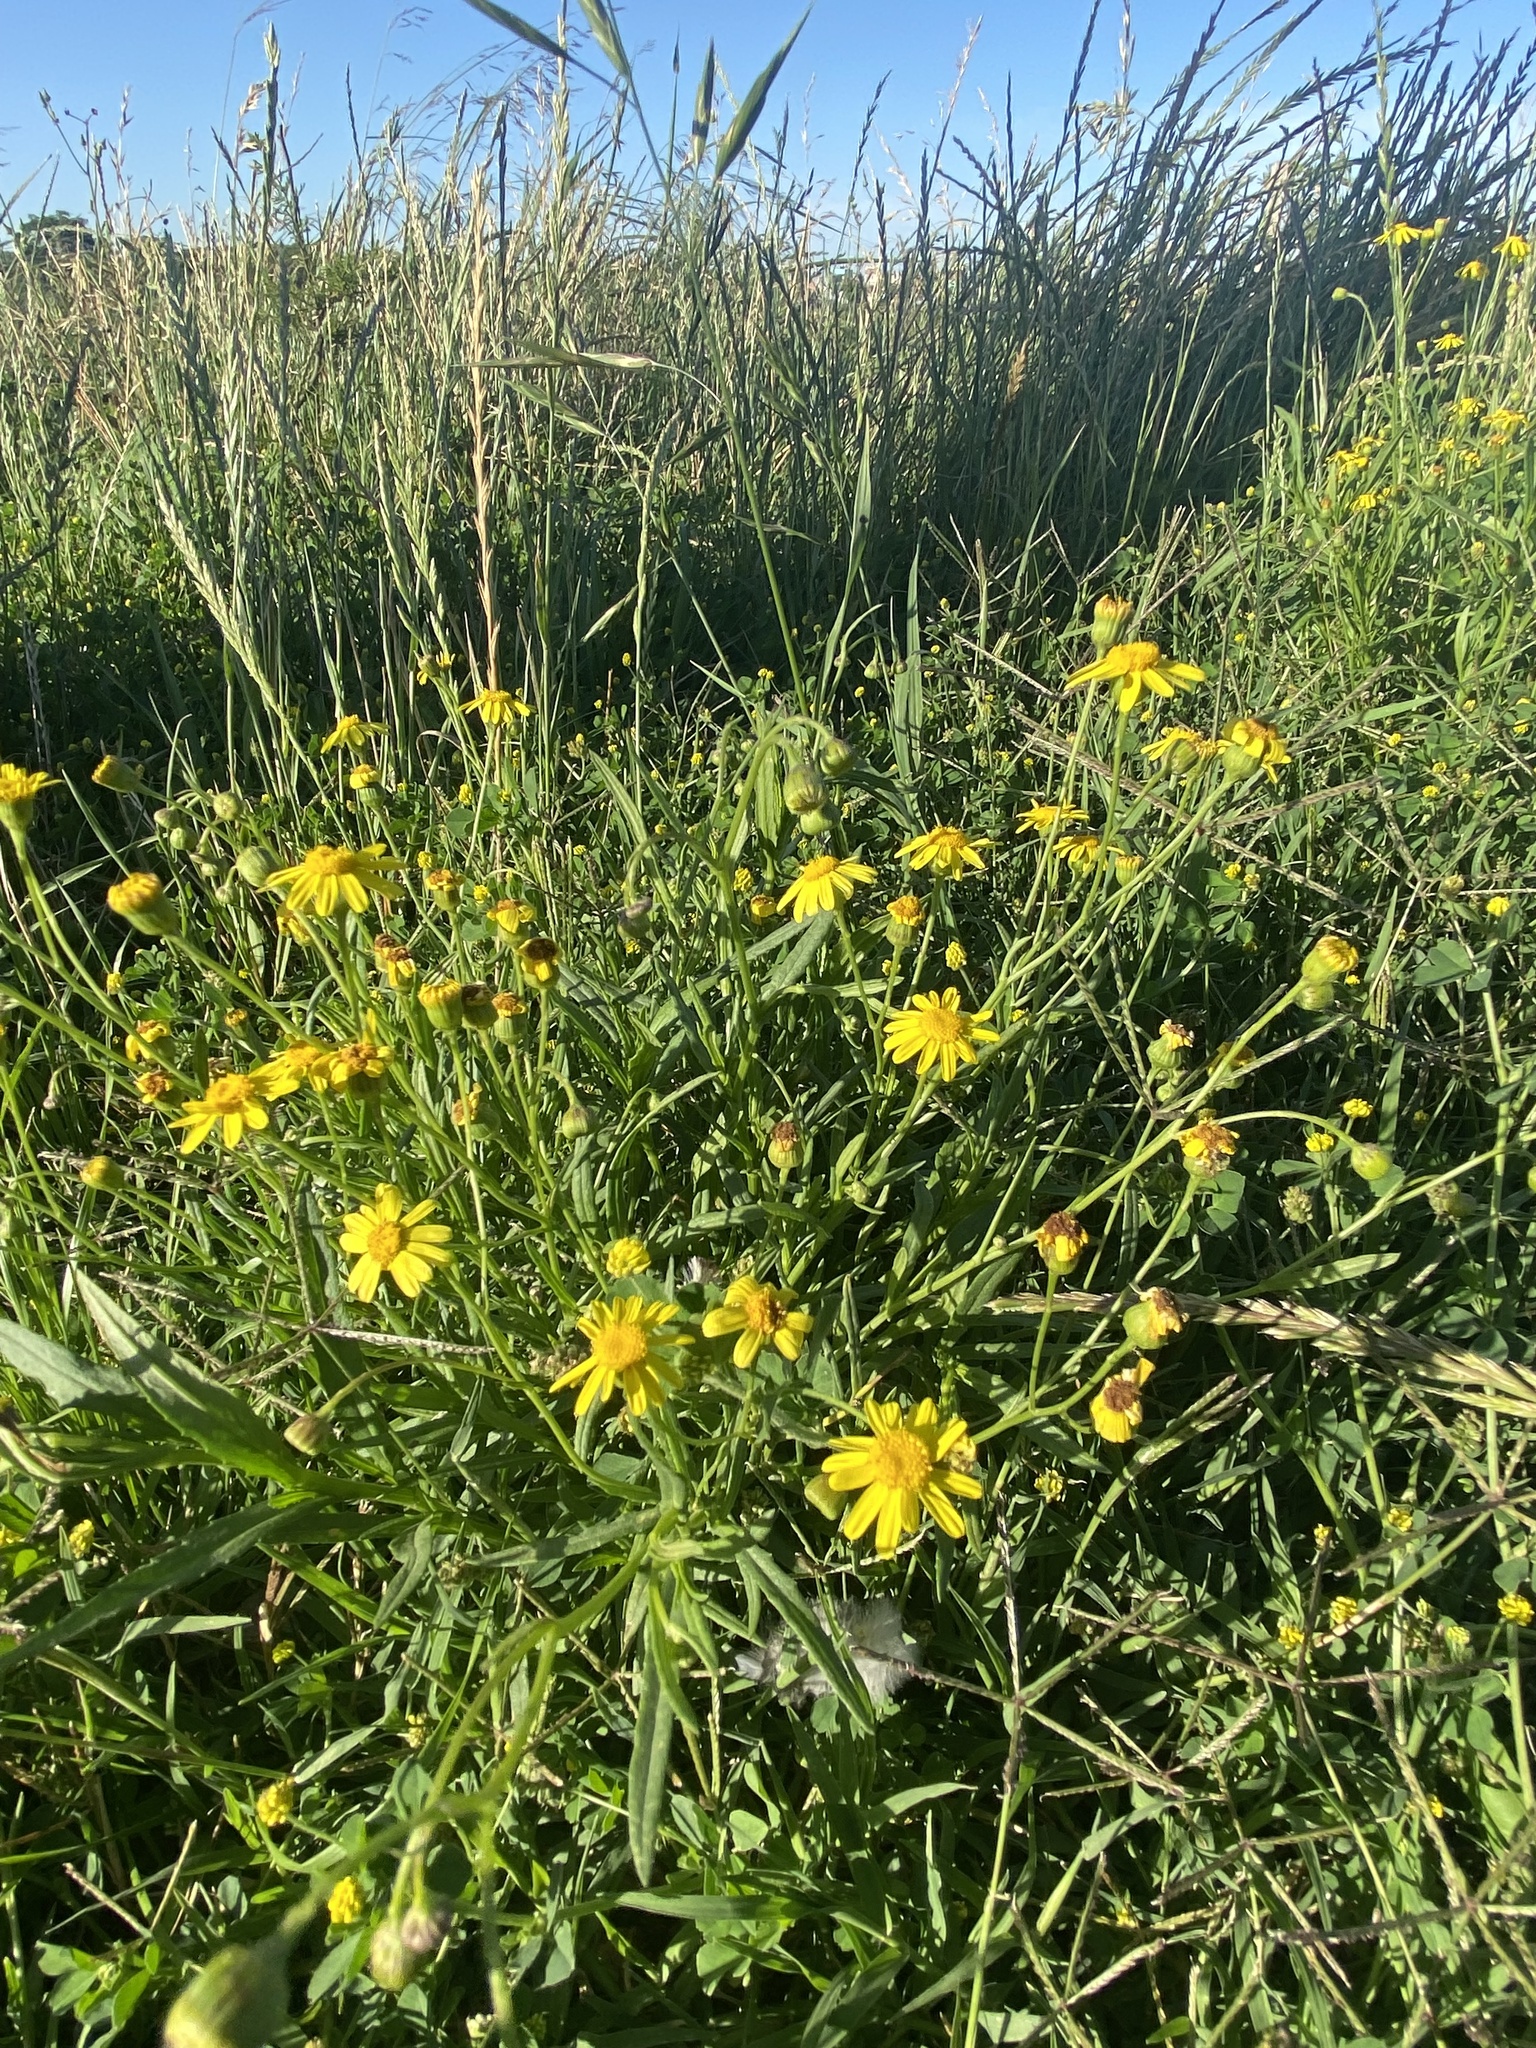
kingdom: Plantae
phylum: Tracheophyta
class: Magnoliopsida
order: Asterales
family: Asteraceae
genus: Senecio
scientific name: Senecio madagascariensis
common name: Madagascar ragwort
